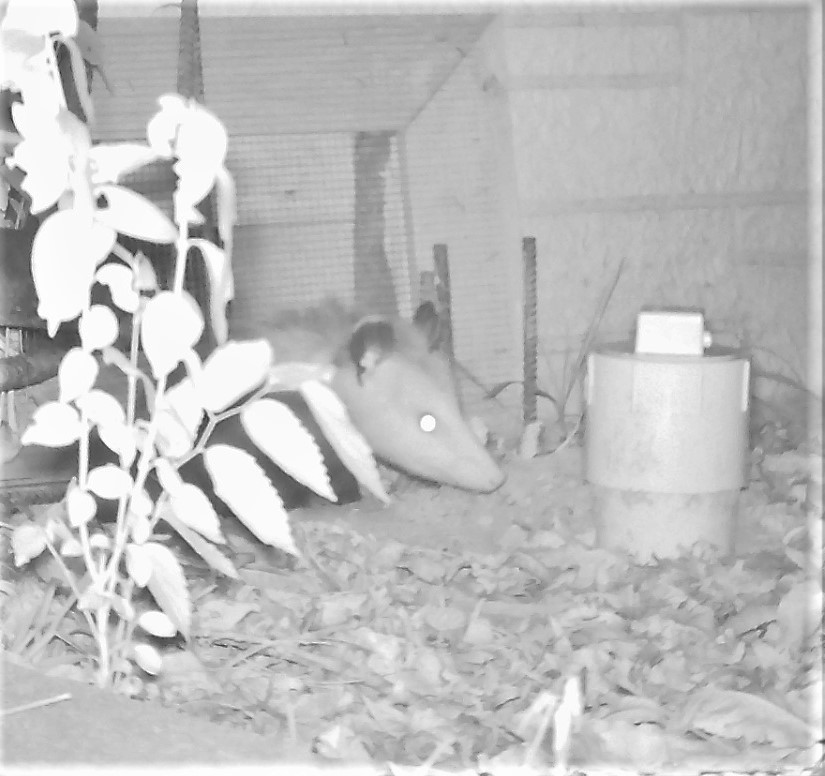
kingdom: Animalia
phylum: Chordata
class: Mammalia
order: Didelphimorphia
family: Didelphidae
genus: Didelphis
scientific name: Didelphis virginiana
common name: Virginia opossum
